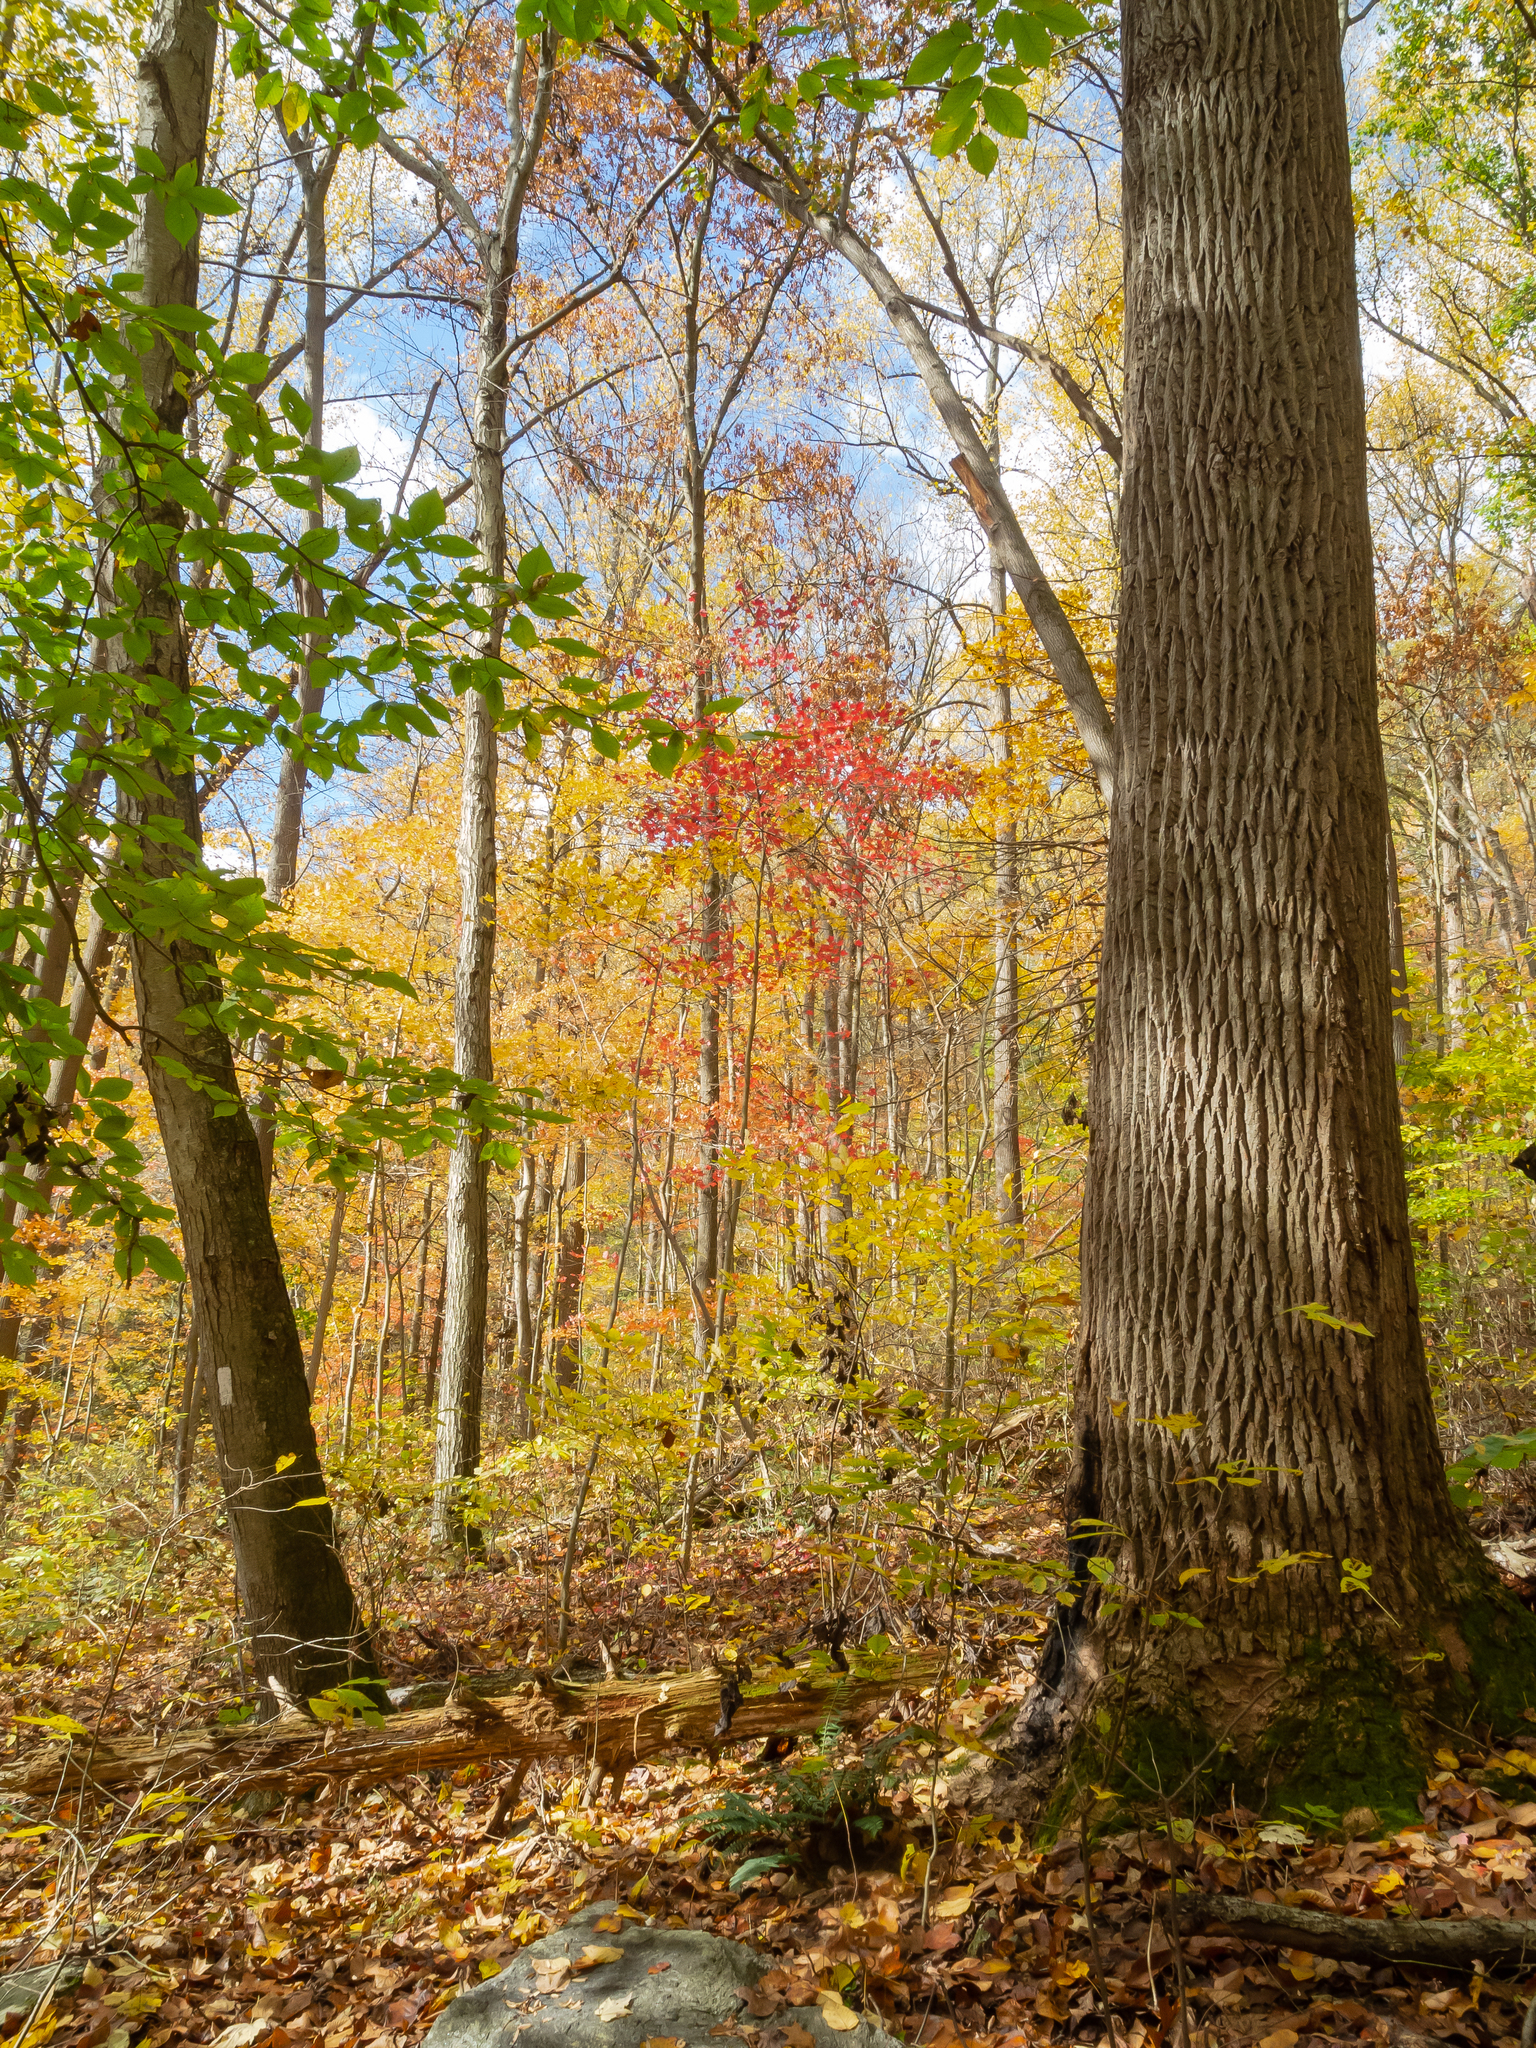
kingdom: Plantae
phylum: Tracheophyta
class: Magnoliopsida
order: Magnoliales
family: Magnoliaceae
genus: Liriodendron
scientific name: Liriodendron tulipifera
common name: Tulip tree
